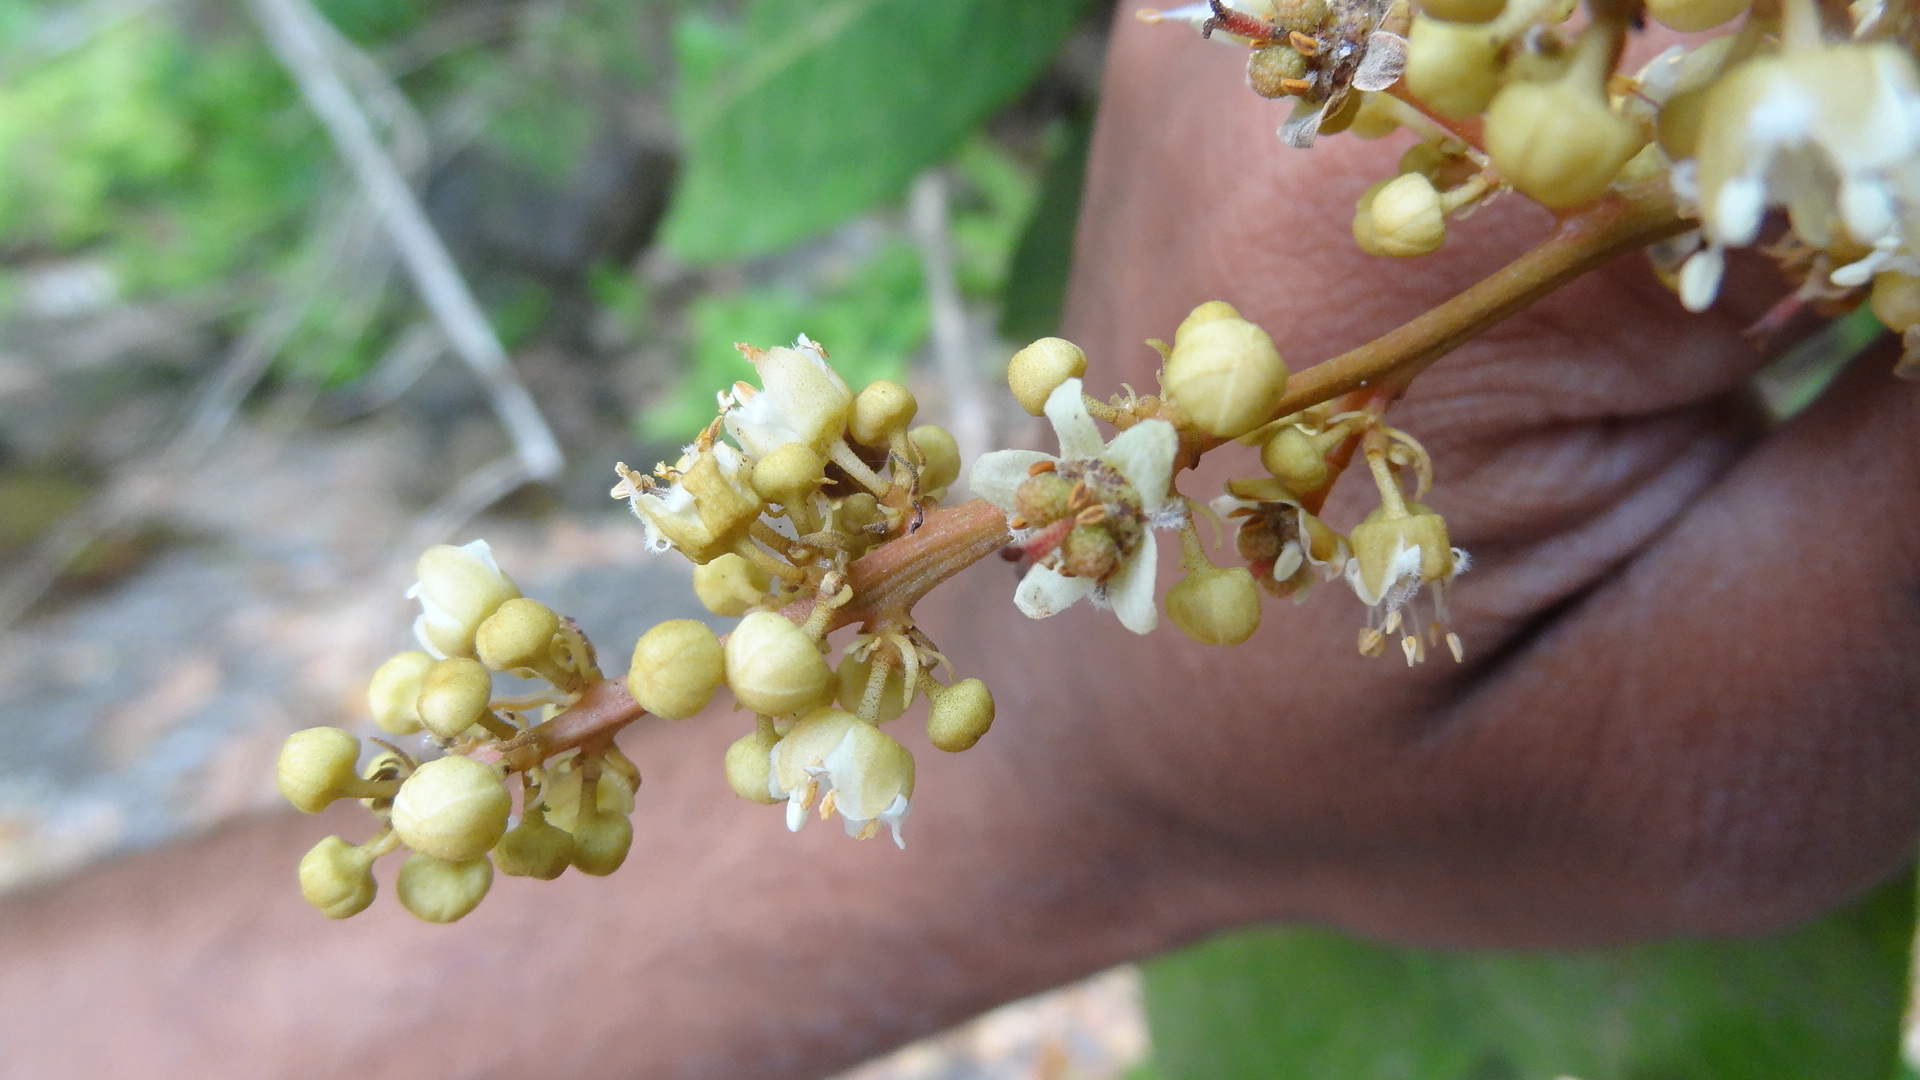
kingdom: Plantae
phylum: Tracheophyta
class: Magnoliopsida
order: Sapindales
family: Sapindaceae
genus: Dimocarpus
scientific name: Dimocarpus longan
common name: Longan
